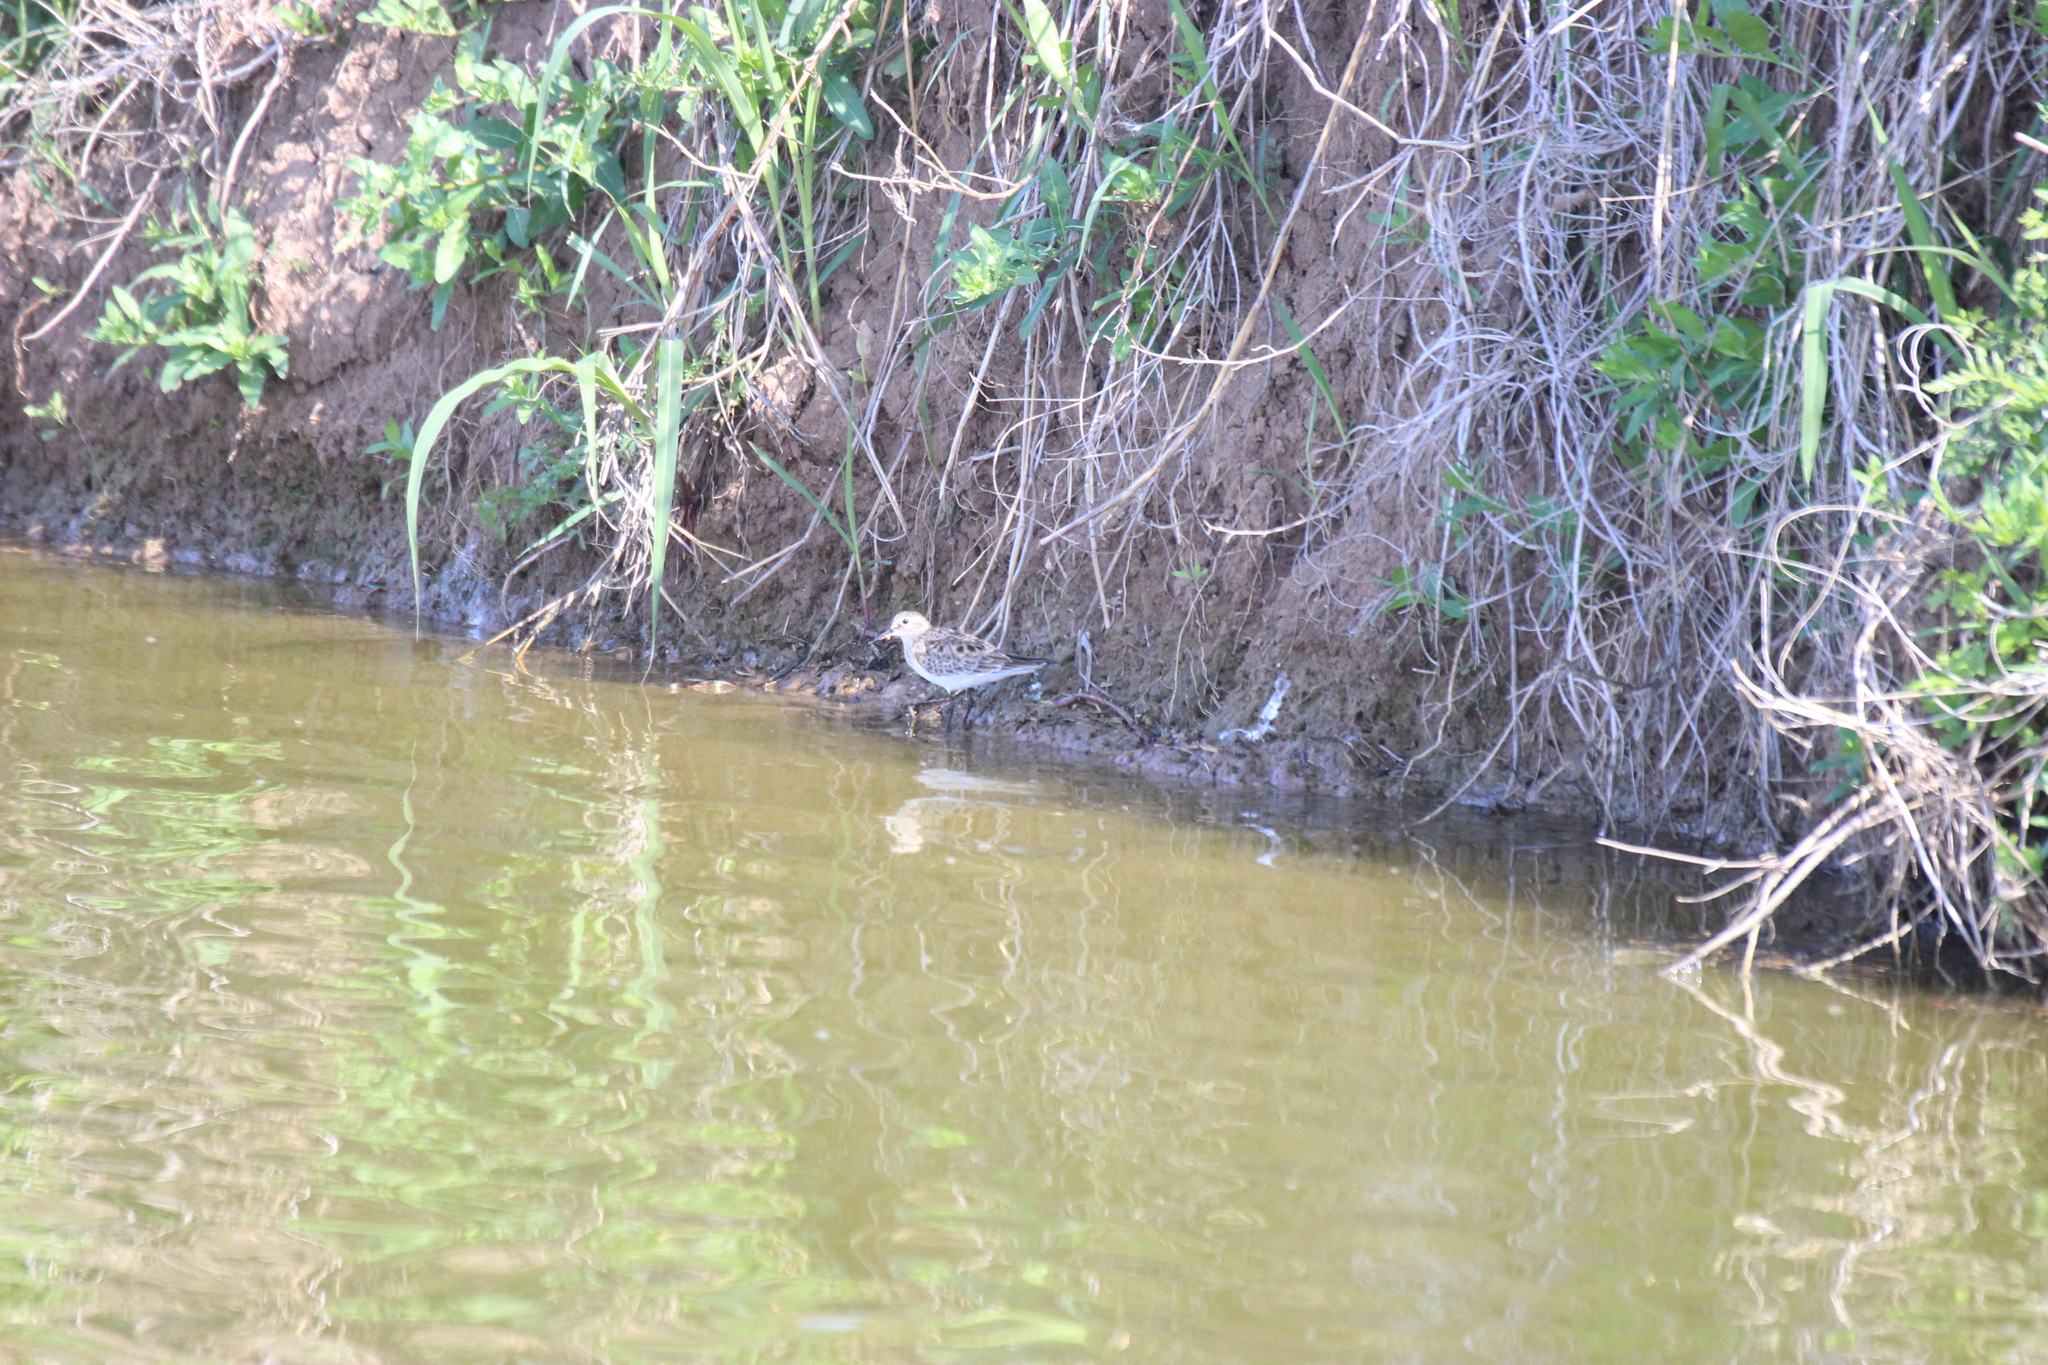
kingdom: Animalia
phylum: Chordata
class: Aves
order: Charadriiformes
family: Scolopacidae
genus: Calidris
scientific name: Calidris bairdii
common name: Baird's sandpiper
